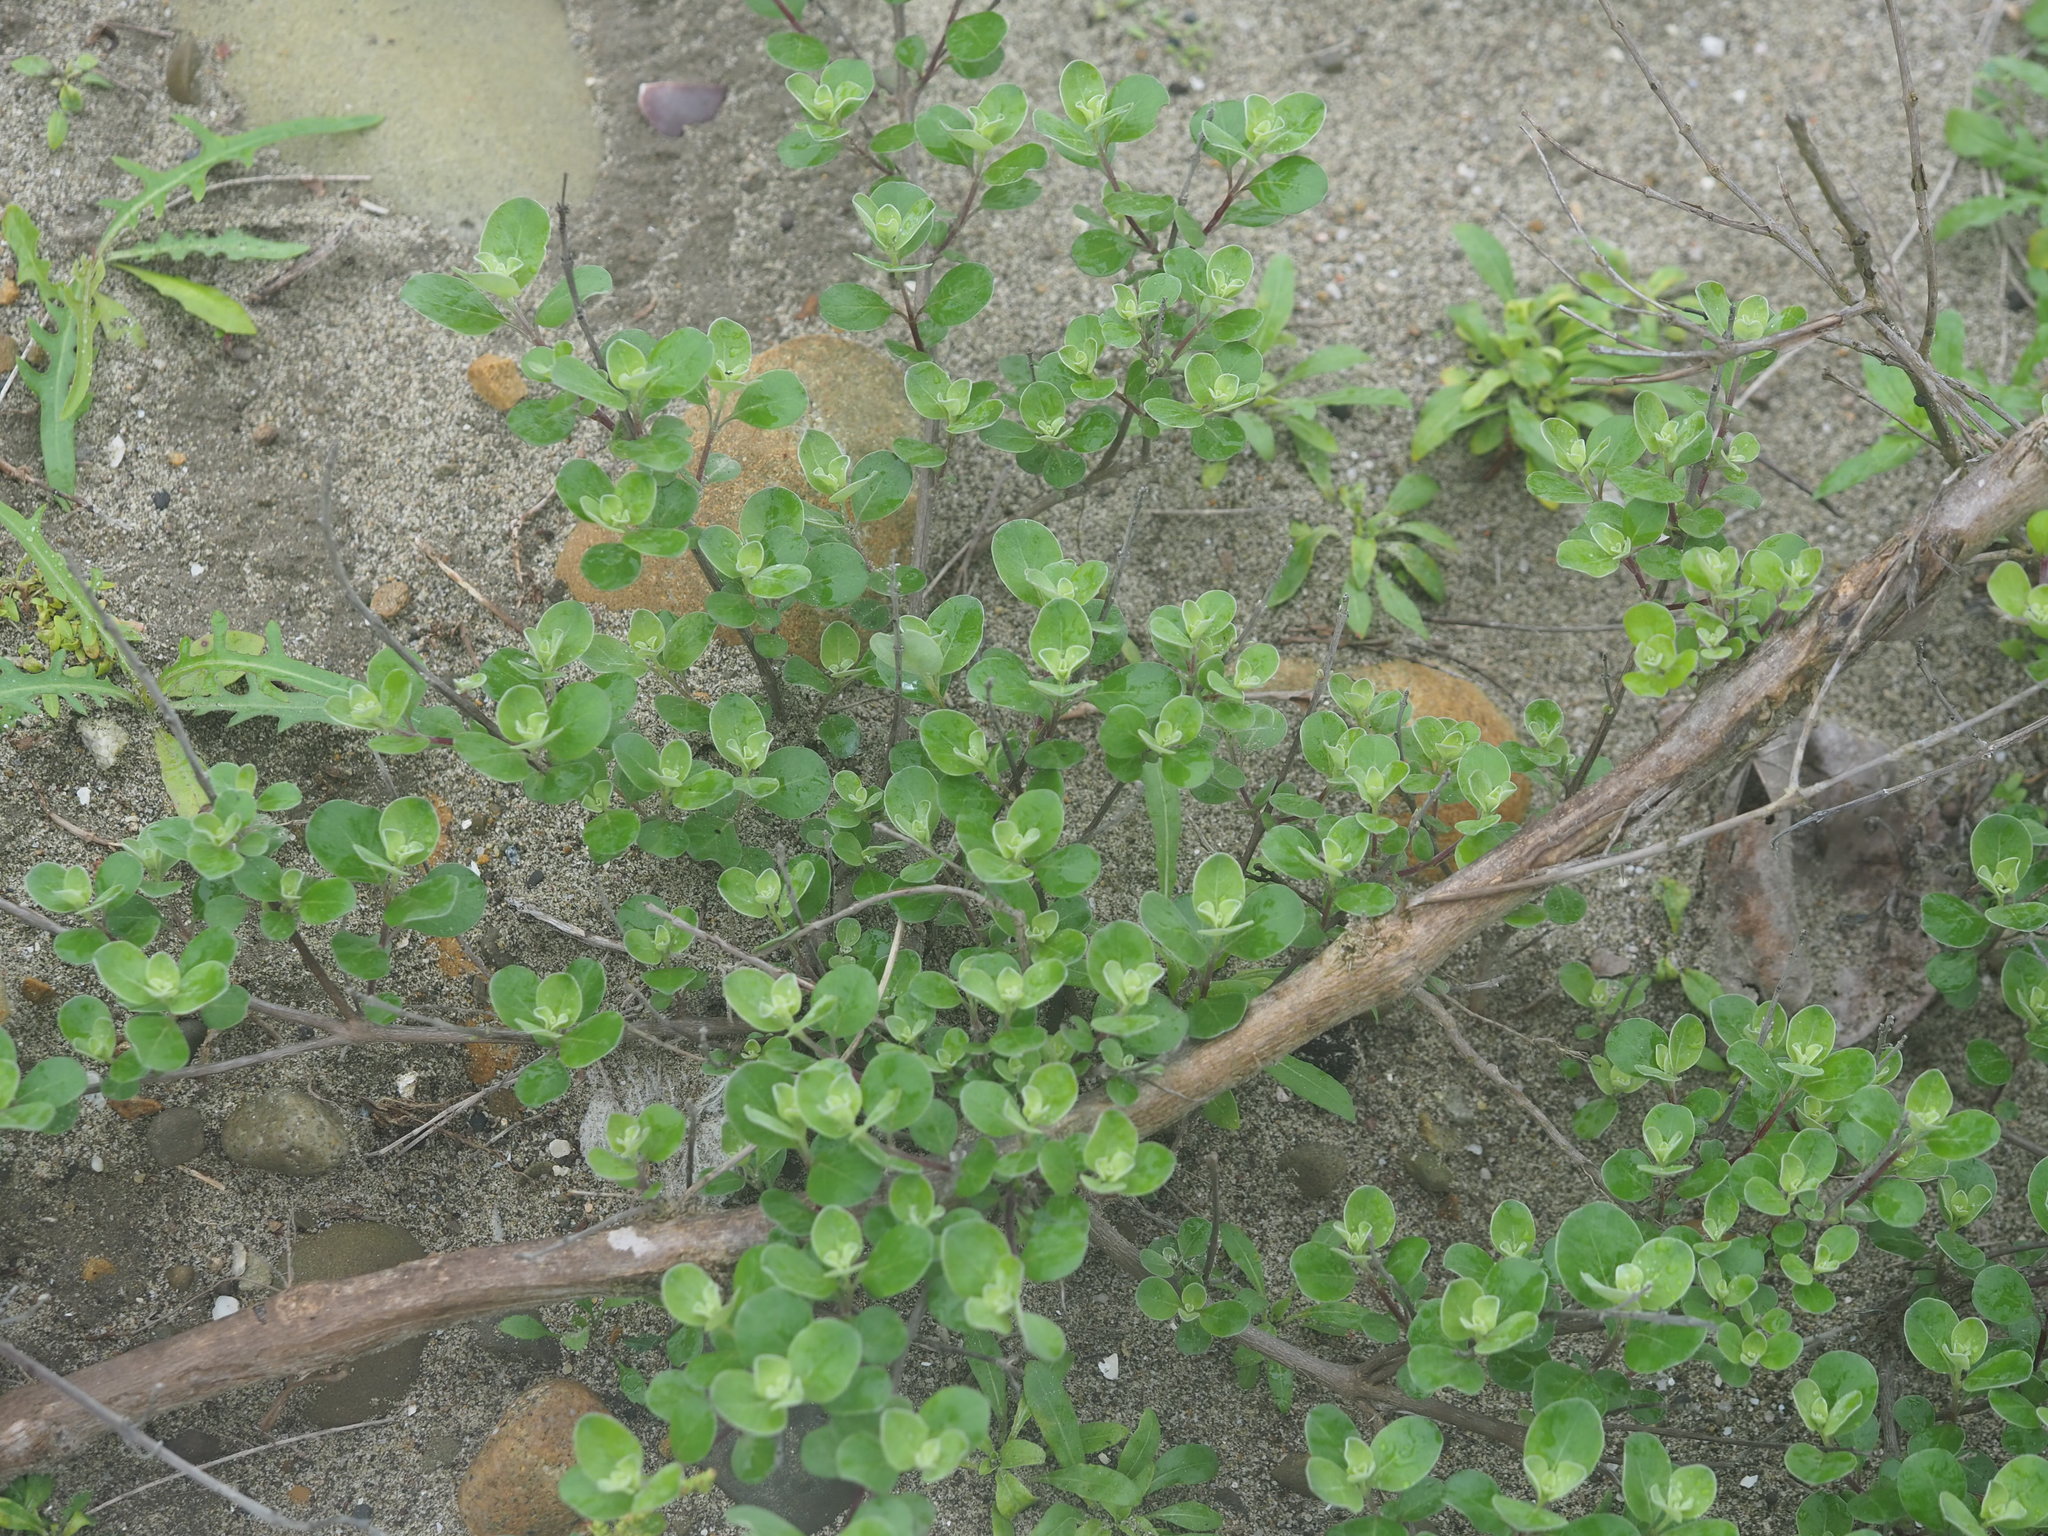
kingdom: Plantae
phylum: Tracheophyta
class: Magnoliopsida
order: Lamiales
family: Lamiaceae
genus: Vitex
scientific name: Vitex rotundifolia
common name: Beach vitex
